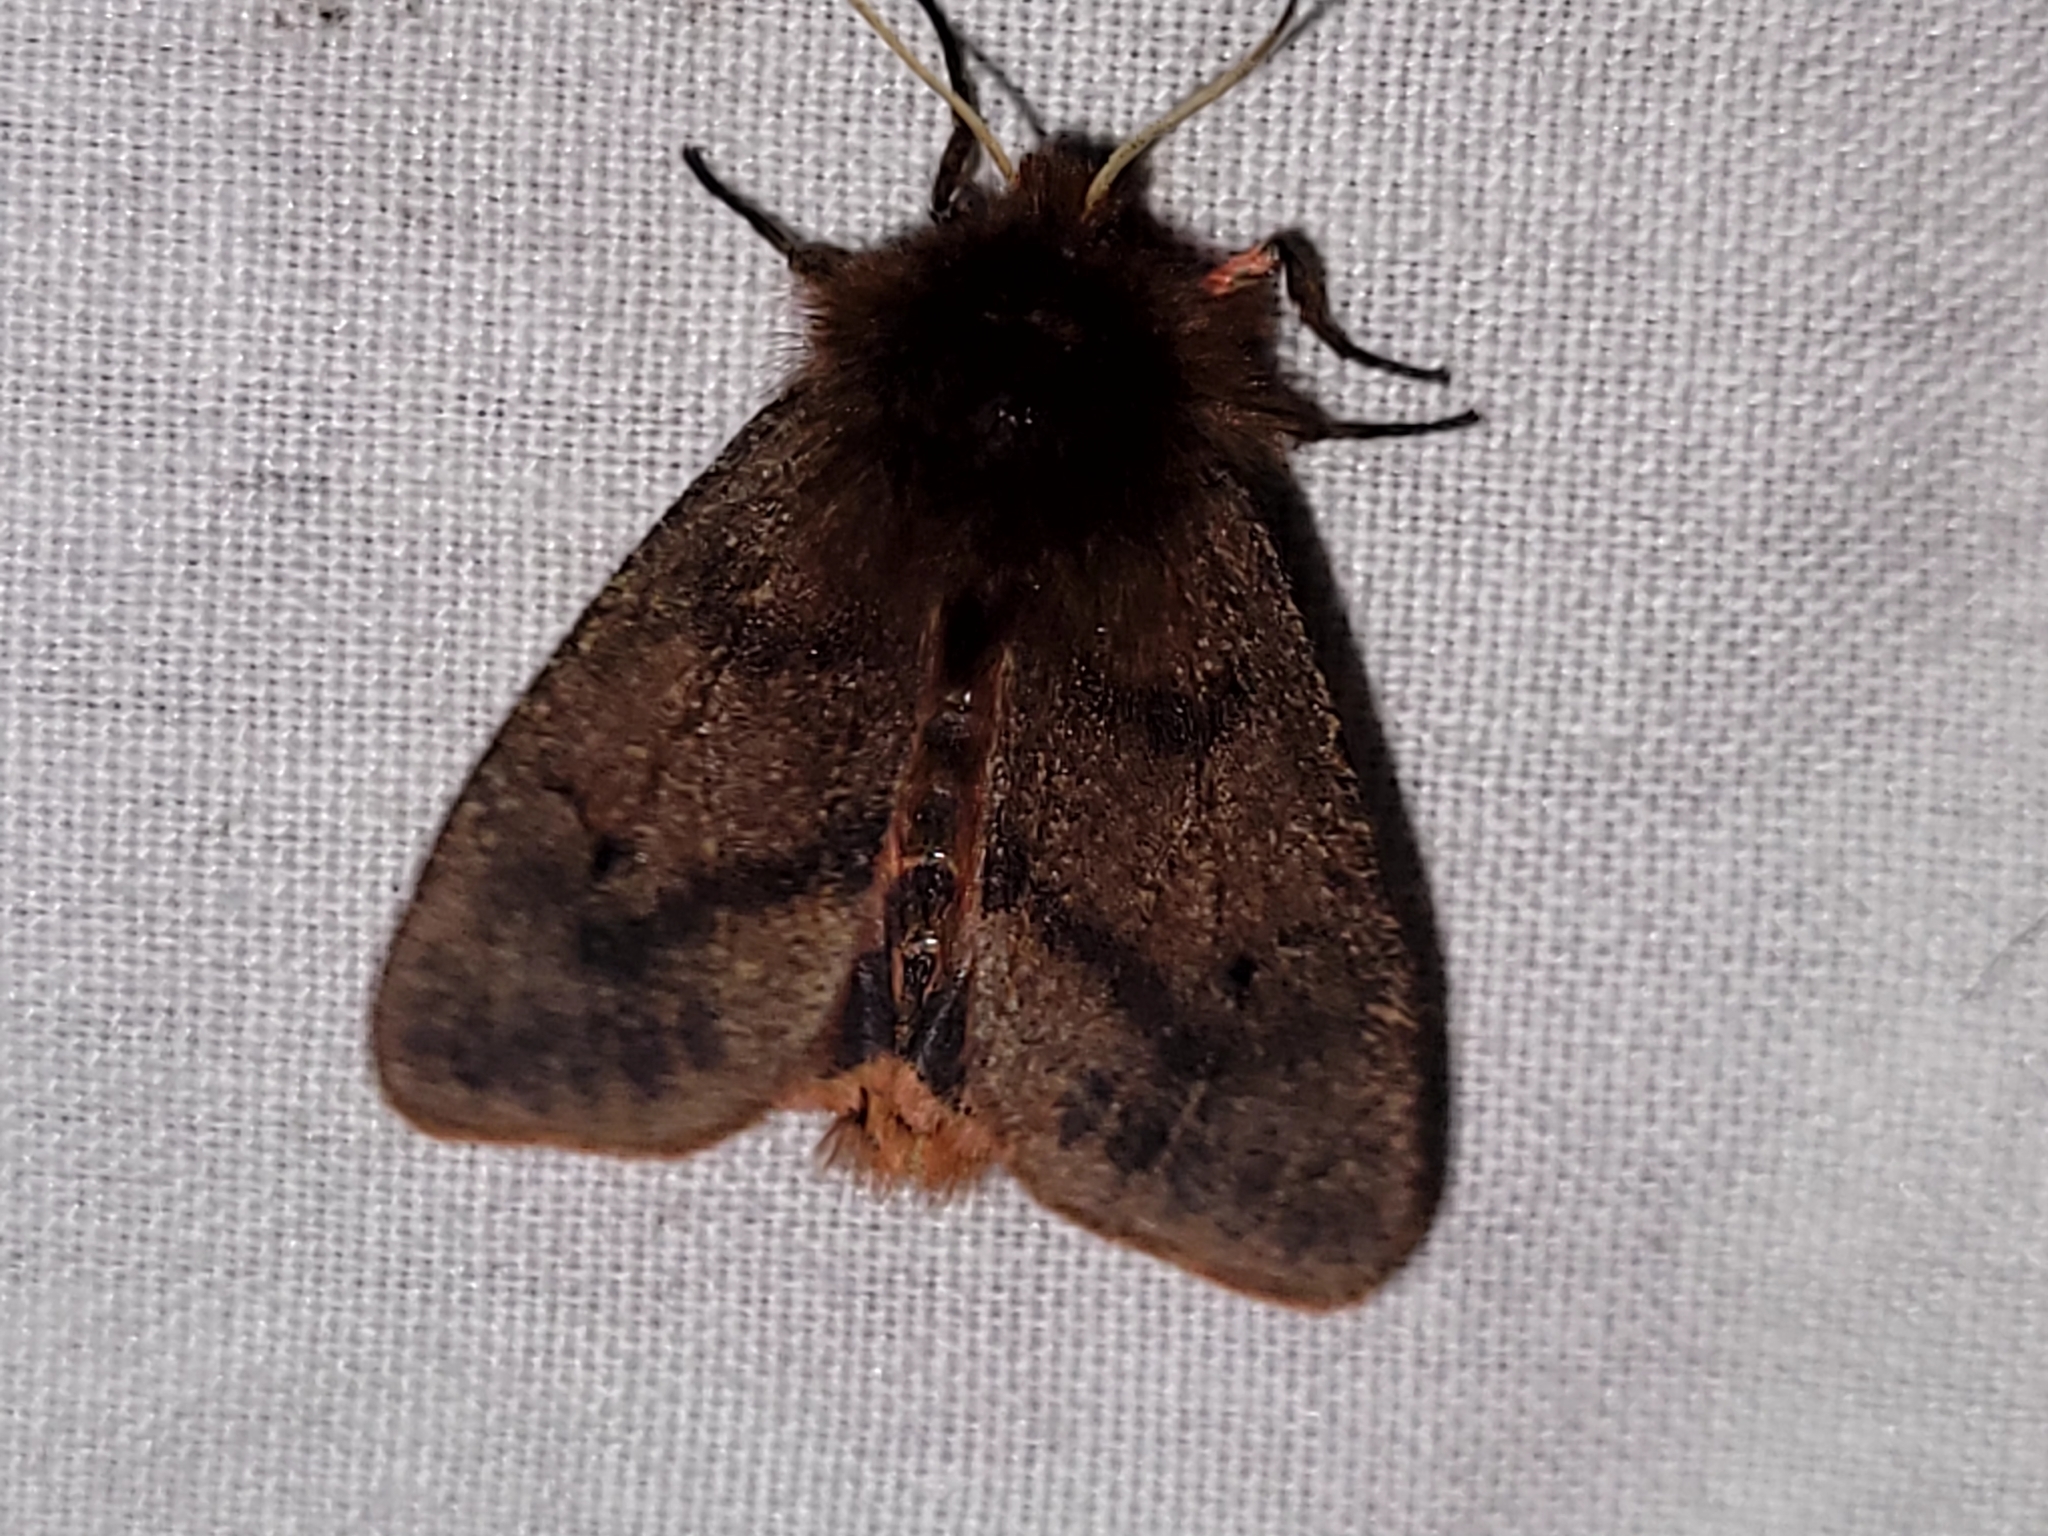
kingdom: Animalia
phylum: Arthropoda
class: Insecta
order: Lepidoptera
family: Erebidae
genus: Phragmatobia
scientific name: Phragmatobia assimilans
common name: Large ruby tiger moth
